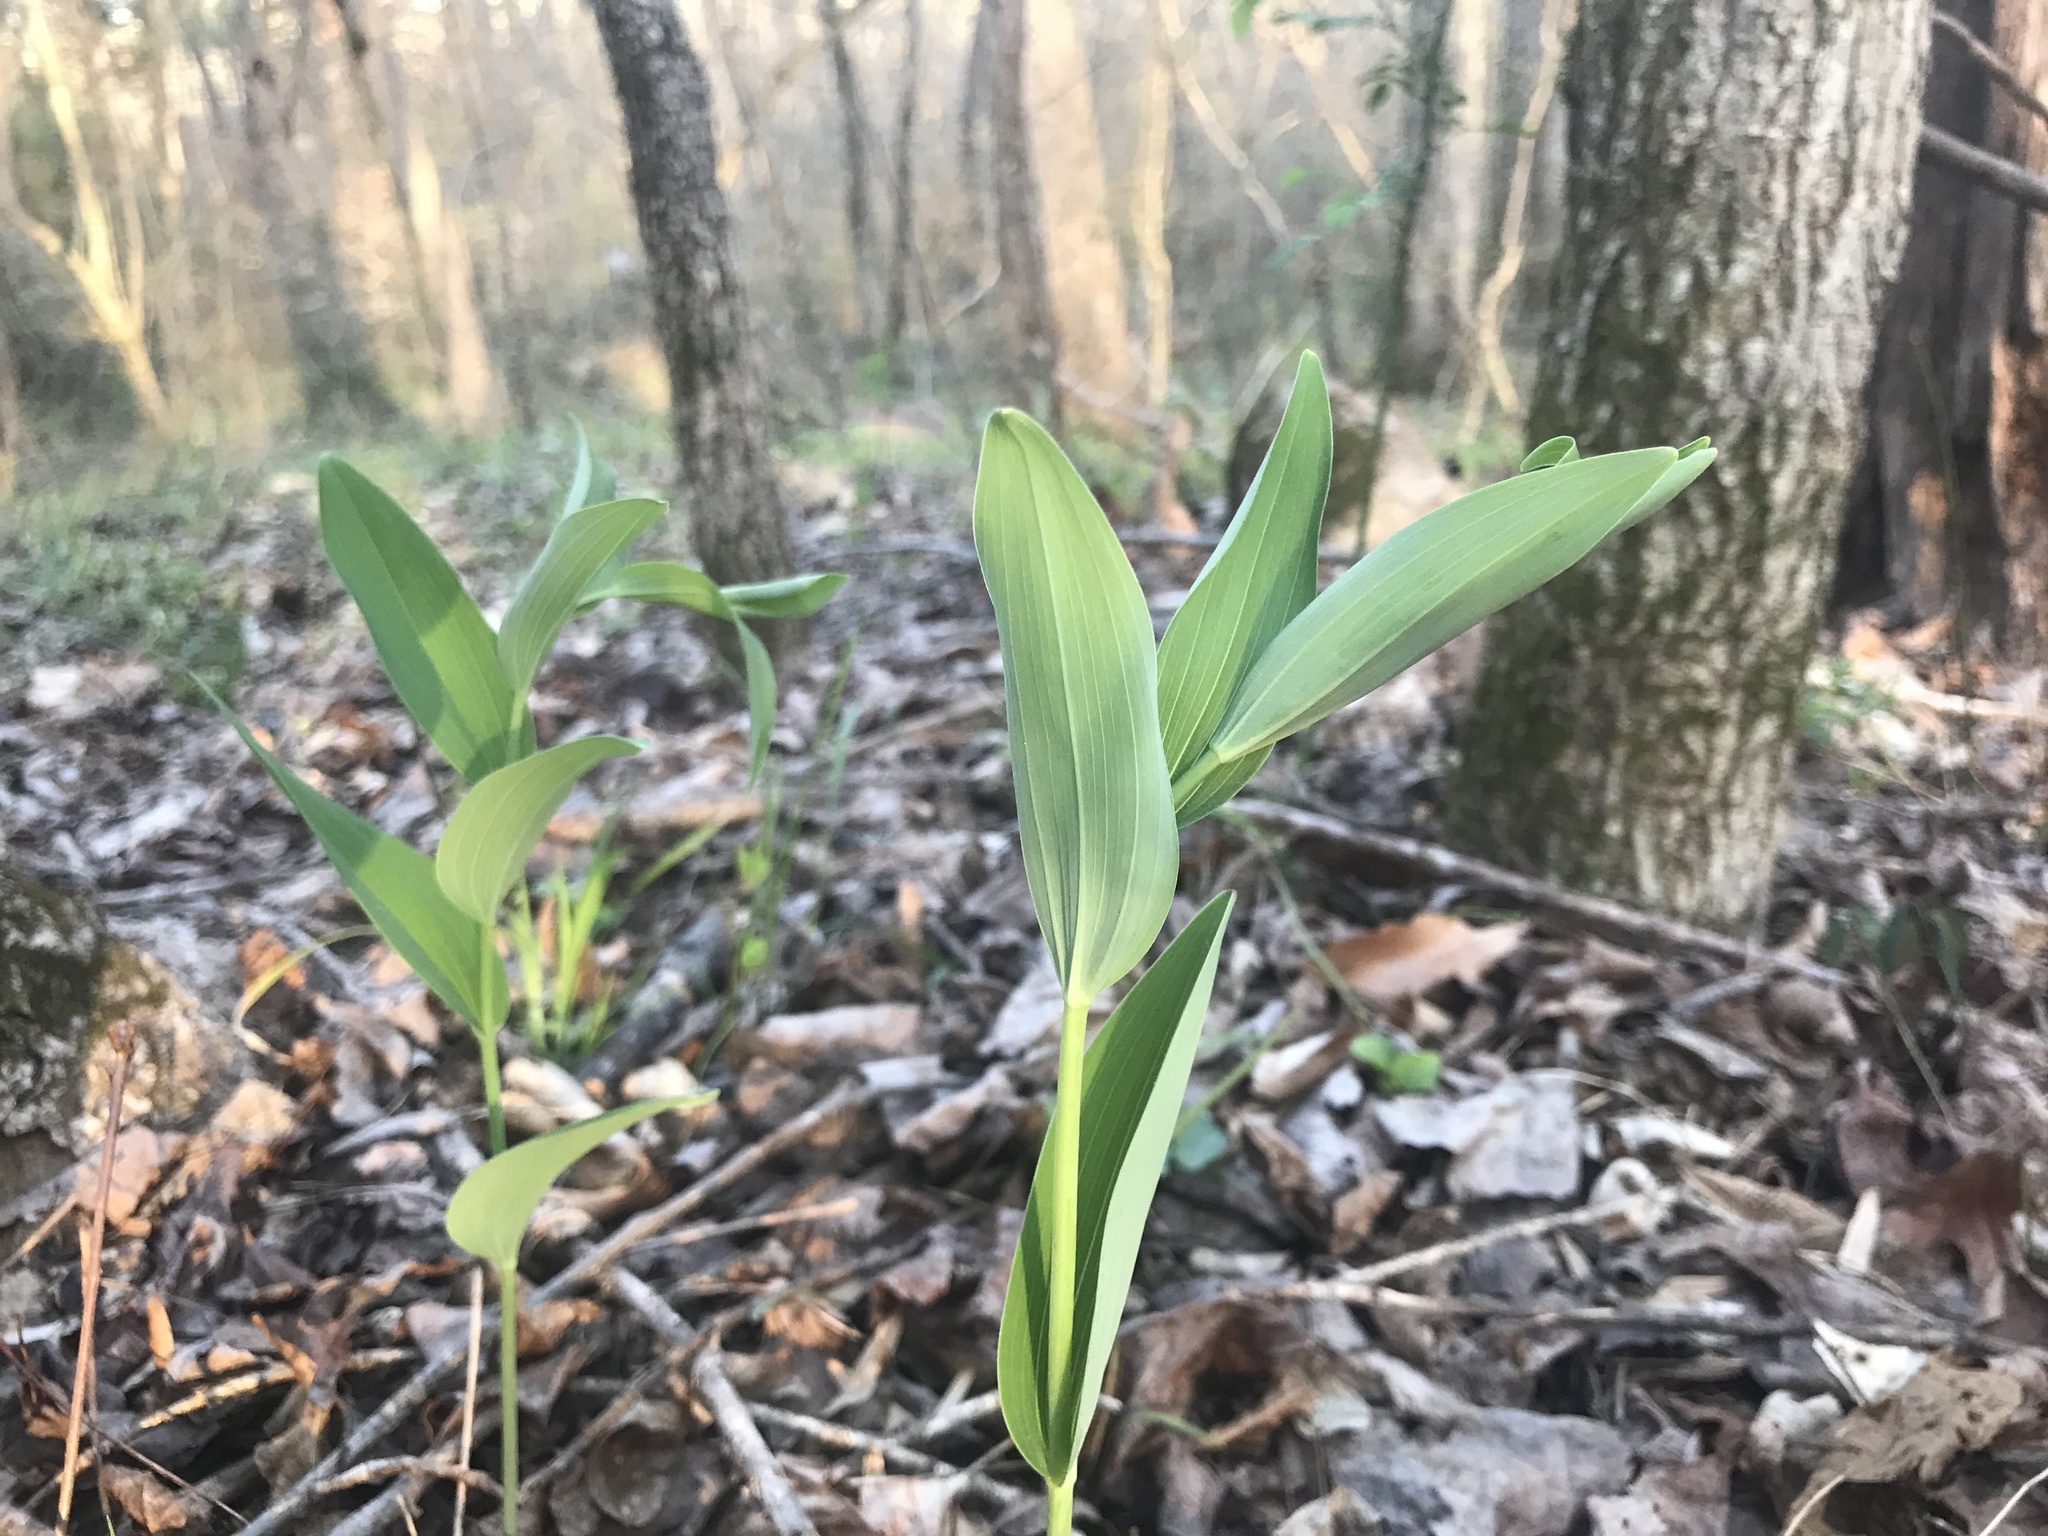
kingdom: Plantae
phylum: Tracheophyta
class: Liliopsida
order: Asparagales
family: Asparagaceae
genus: Polygonatum
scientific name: Polygonatum biflorum
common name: American solomon's-seal
